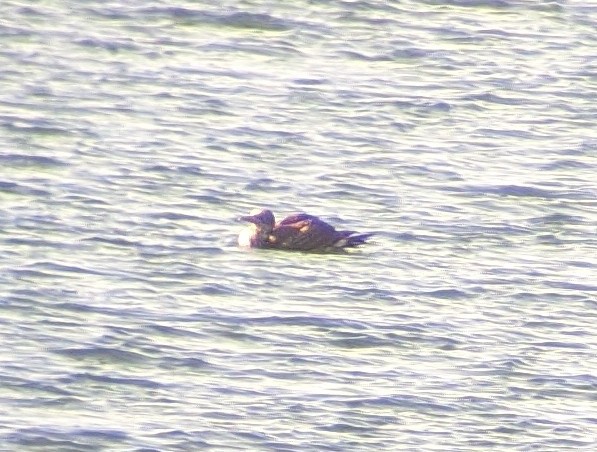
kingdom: Animalia
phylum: Chordata
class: Aves
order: Suliformes
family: Sulidae
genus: Morus
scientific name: Morus bassanus
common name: Northern gannet
